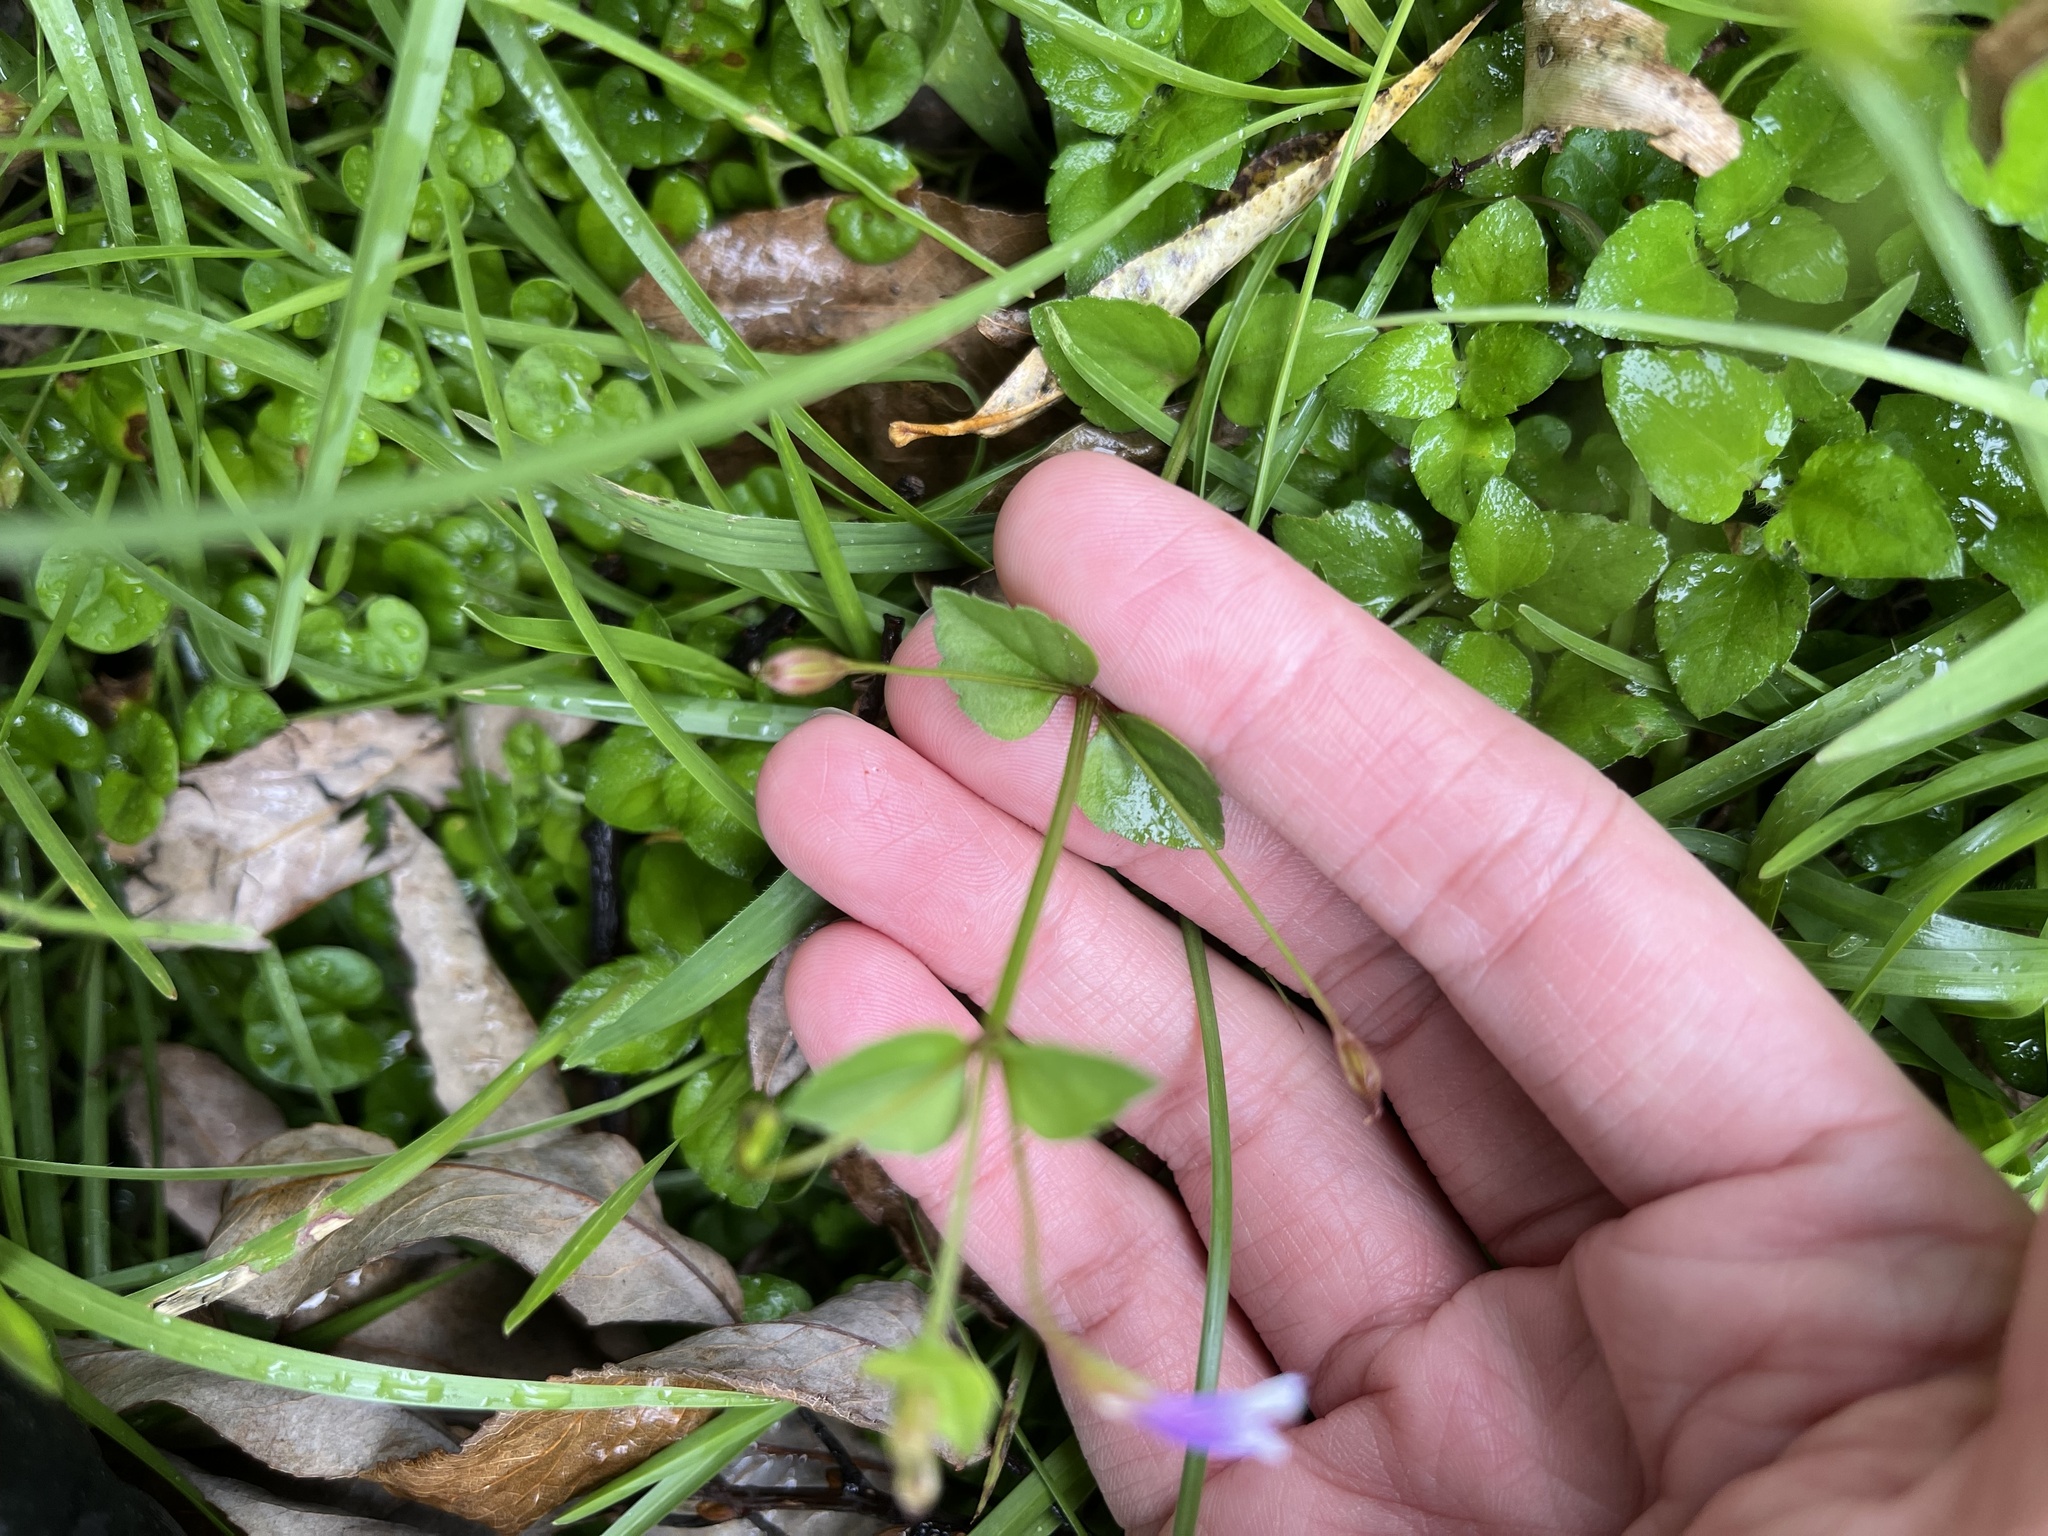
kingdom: Plantae
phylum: Tracheophyta
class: Magnoliopsida
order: Lamiales
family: Linderniaceae
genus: Torenia
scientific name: Torenia crustacea
